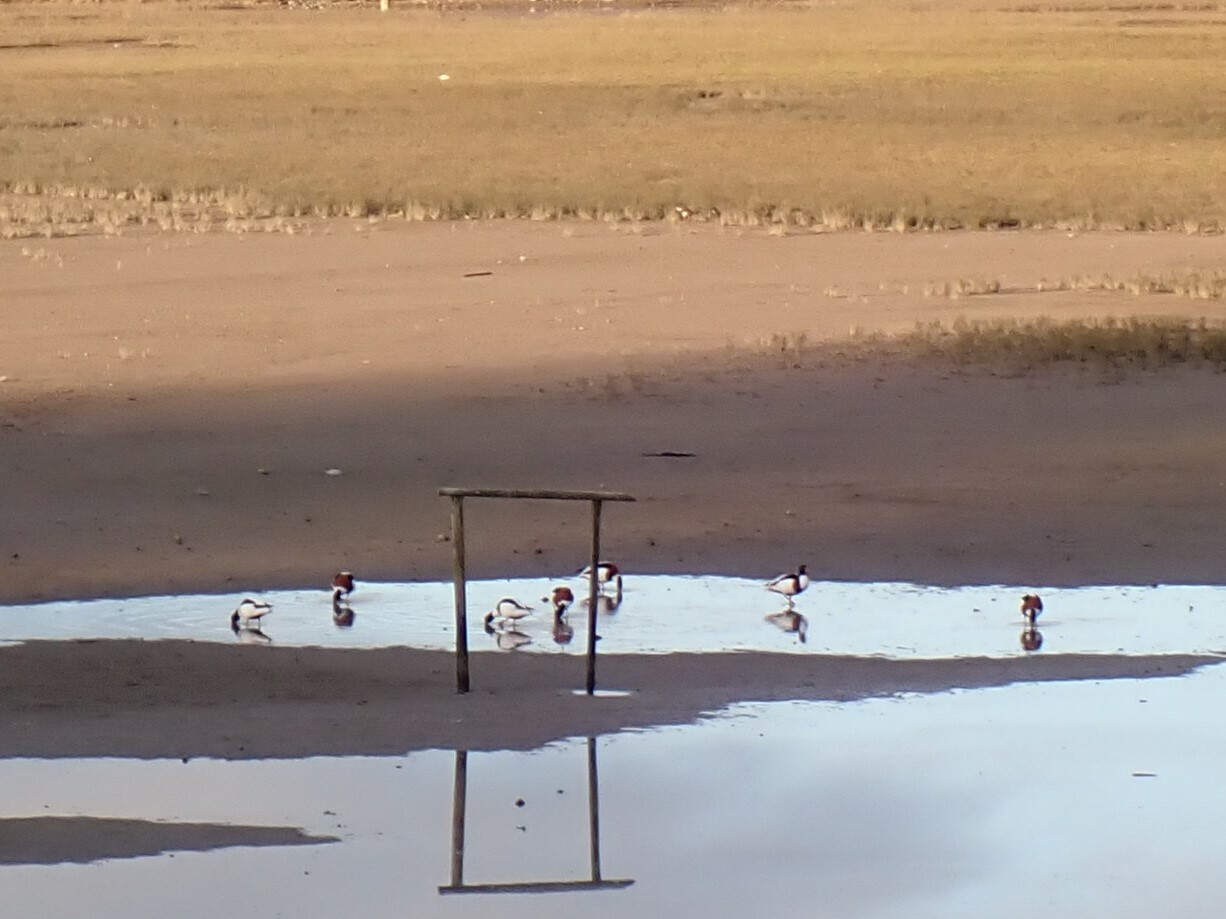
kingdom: Animalia
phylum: Chordata
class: Aves
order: Anseriformes
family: Anatidae
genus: Tadorna
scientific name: Tadorna tadorna
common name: Common shelduck
